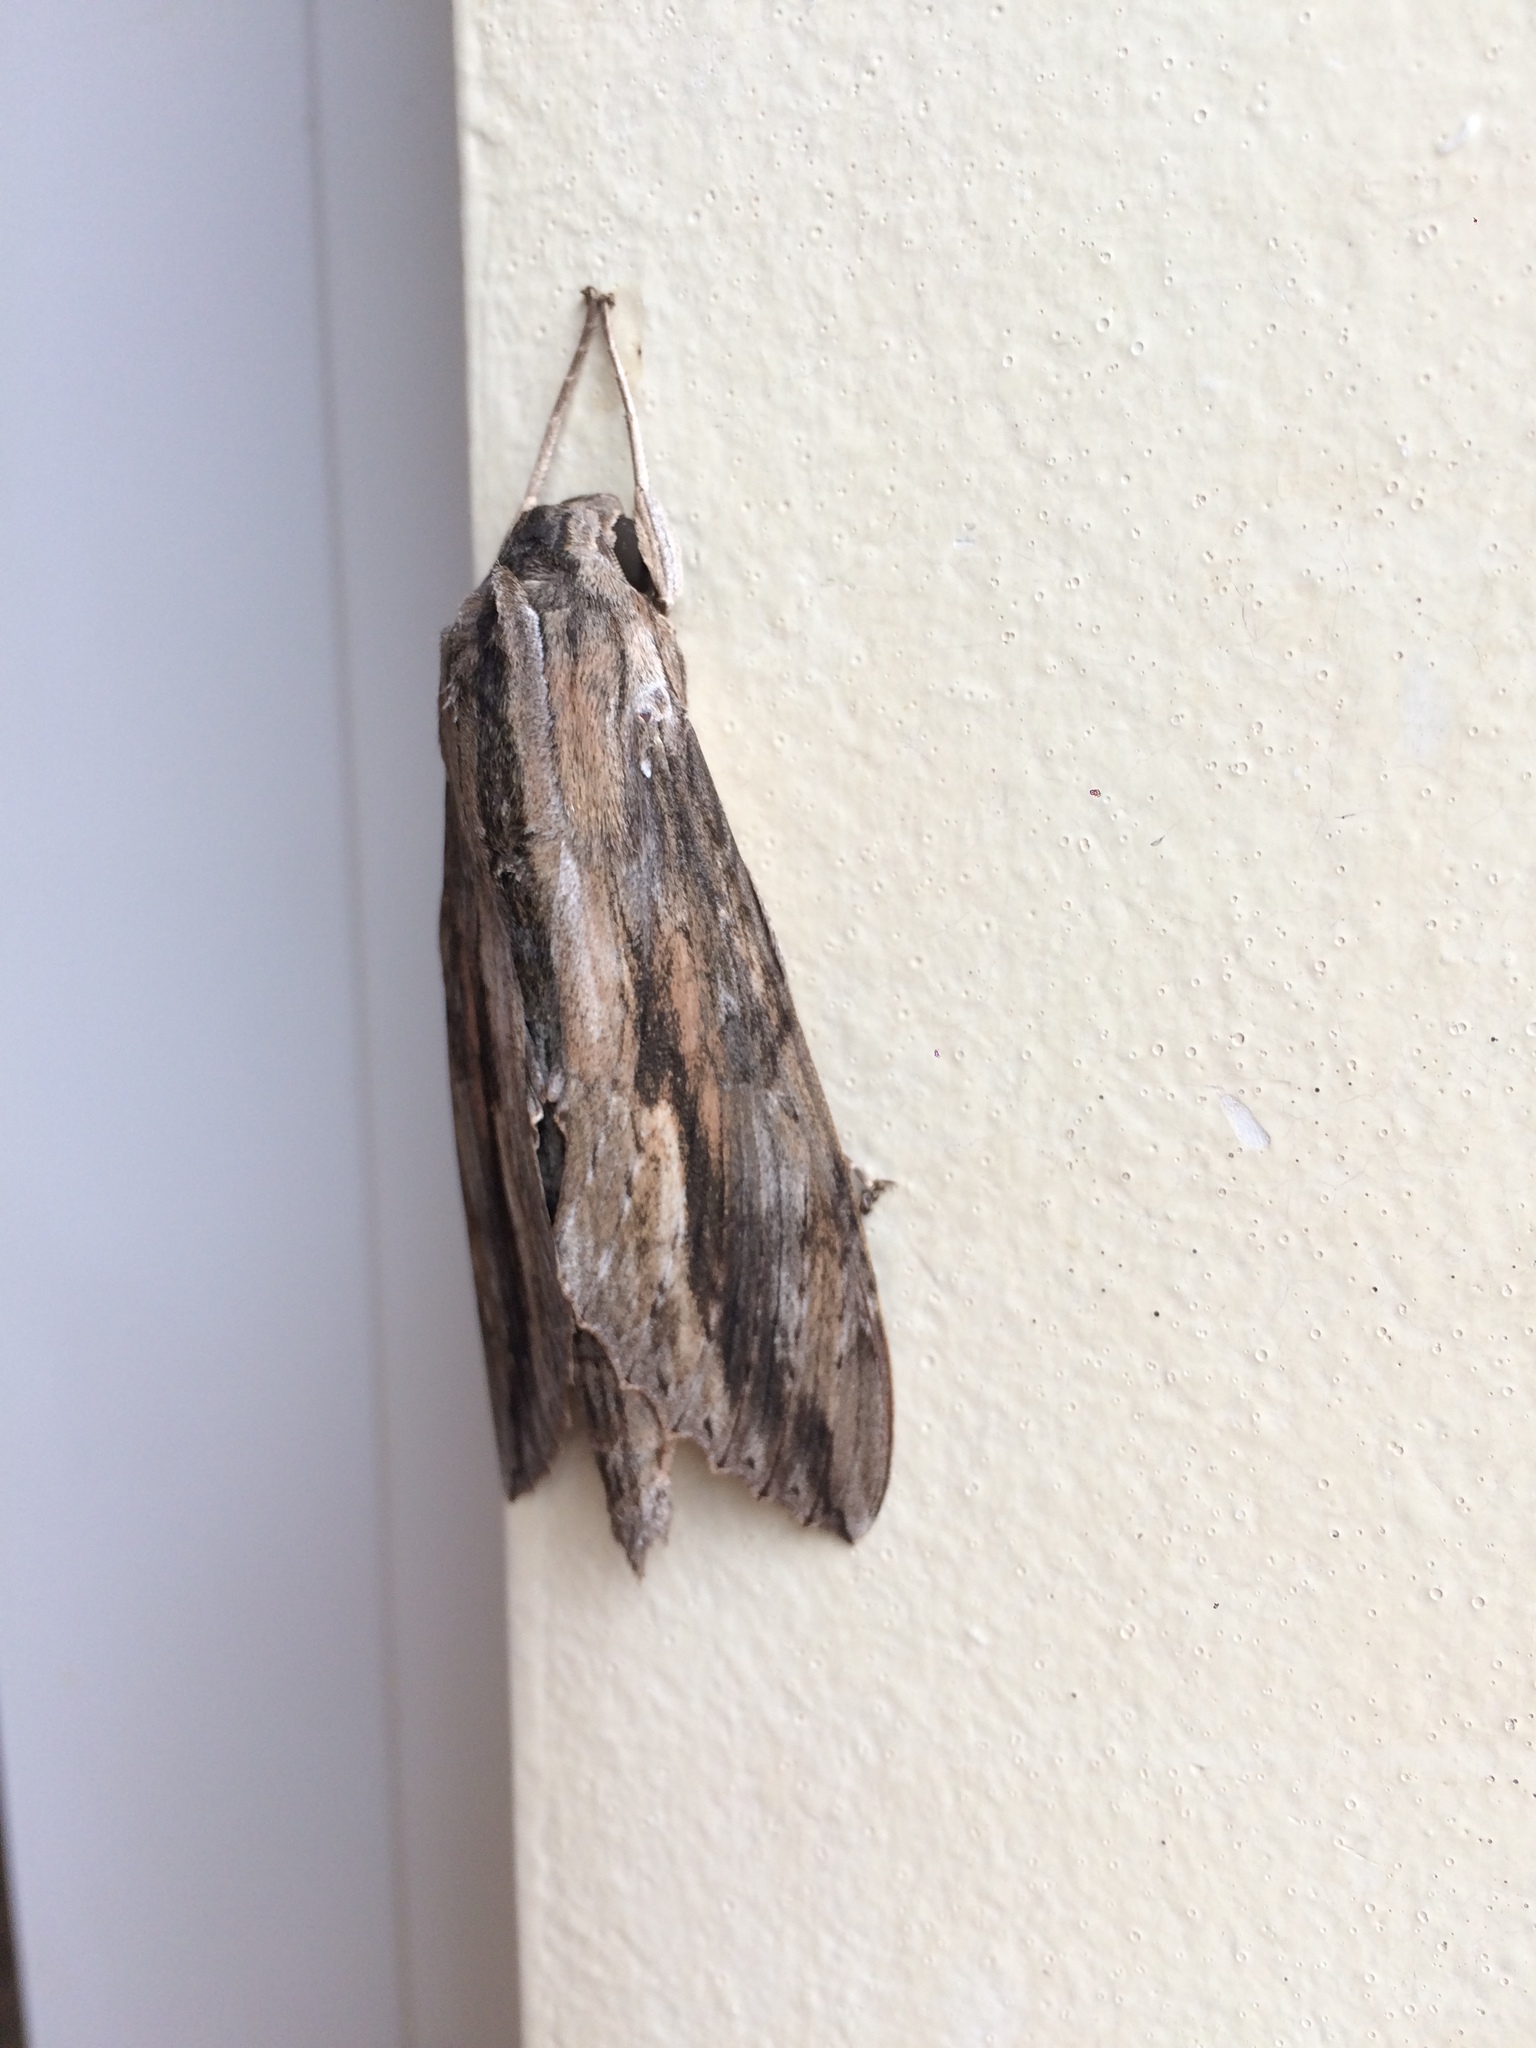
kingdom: Animalia
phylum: Arthropoda
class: Insecta
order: Lepidoptera
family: Sphingidae
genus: Erinnyis
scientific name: Erinnyis ello
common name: Ello sphinx
